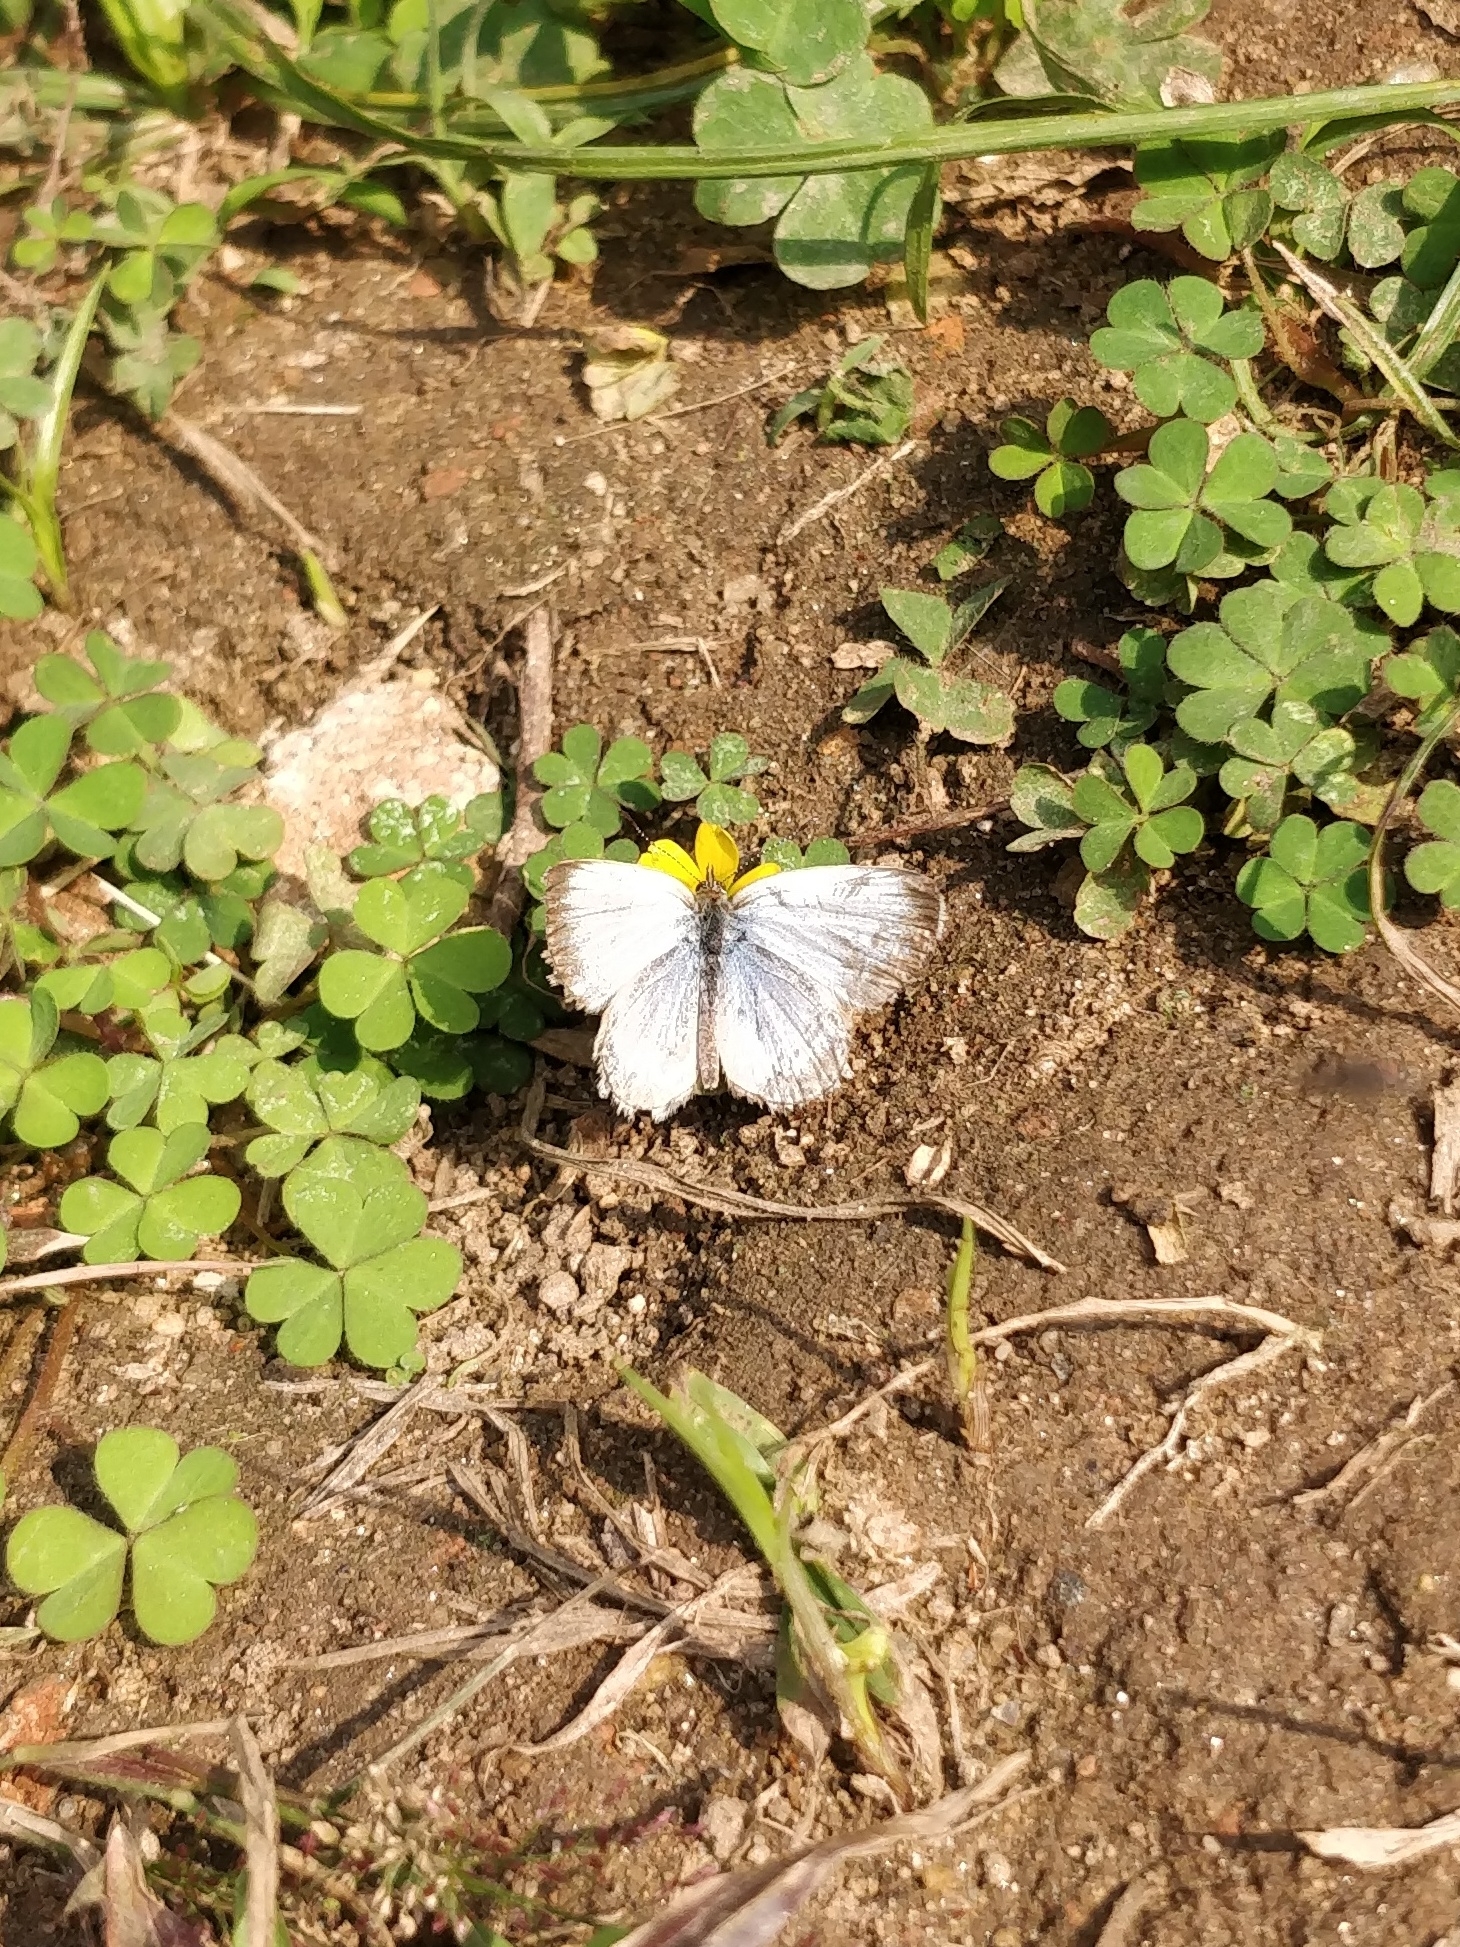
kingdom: Animalia
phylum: Arthropoda
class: Insecta
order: Lepidoptera
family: Lycaenidae
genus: Pseudozizeeria
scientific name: Pseudozizeeria maha
